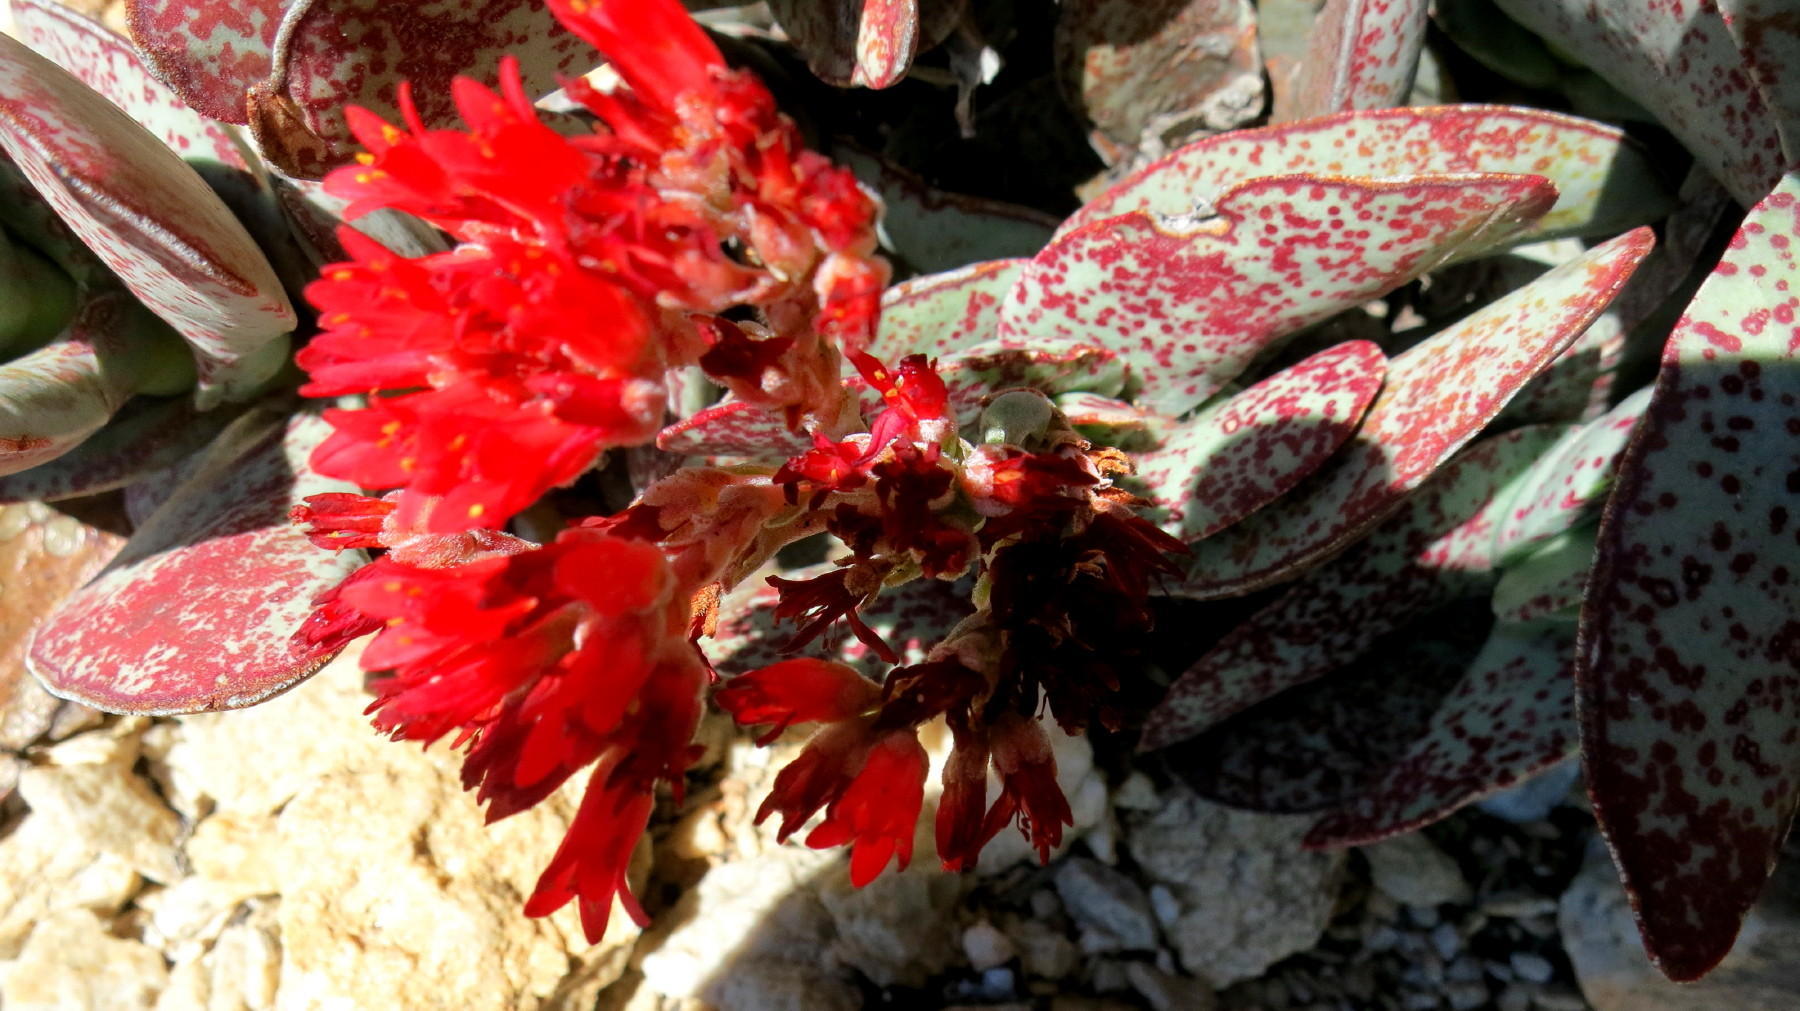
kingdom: Plantae
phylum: Tracheophyta
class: Magnoliopsida
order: Saxifragales
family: Crassulaceae
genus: Crassula
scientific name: Crassula perfoliata
